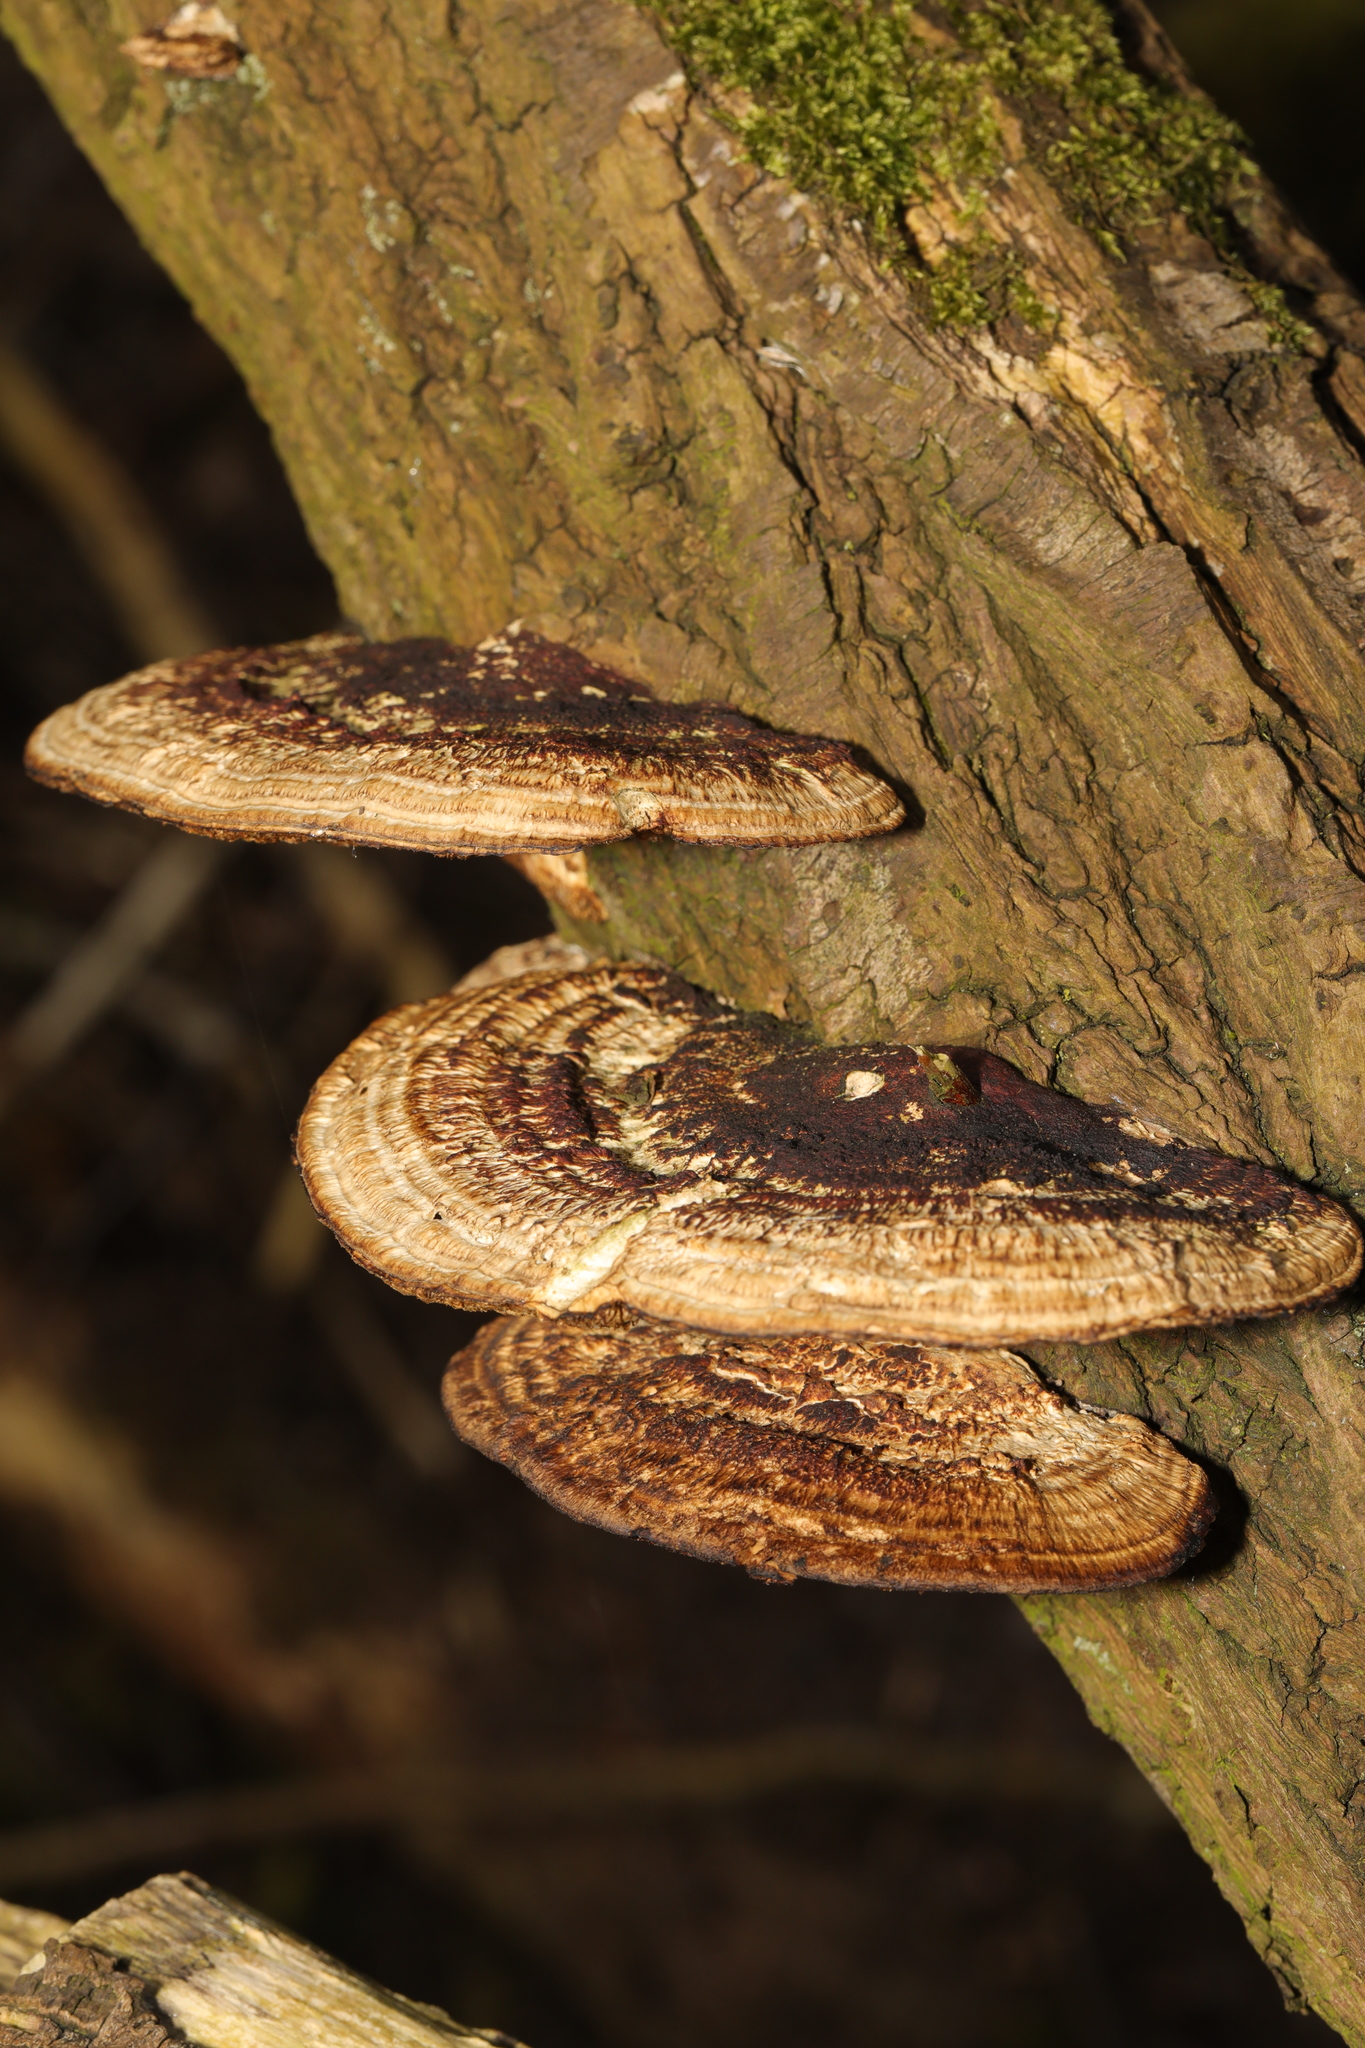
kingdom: Fungi
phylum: Basidiomycota
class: Agaricomycetes
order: Polyporales
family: Polyporaceae
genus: Daedaleopsis
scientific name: Daedaleopsis confragosa
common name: Blushing bracket
